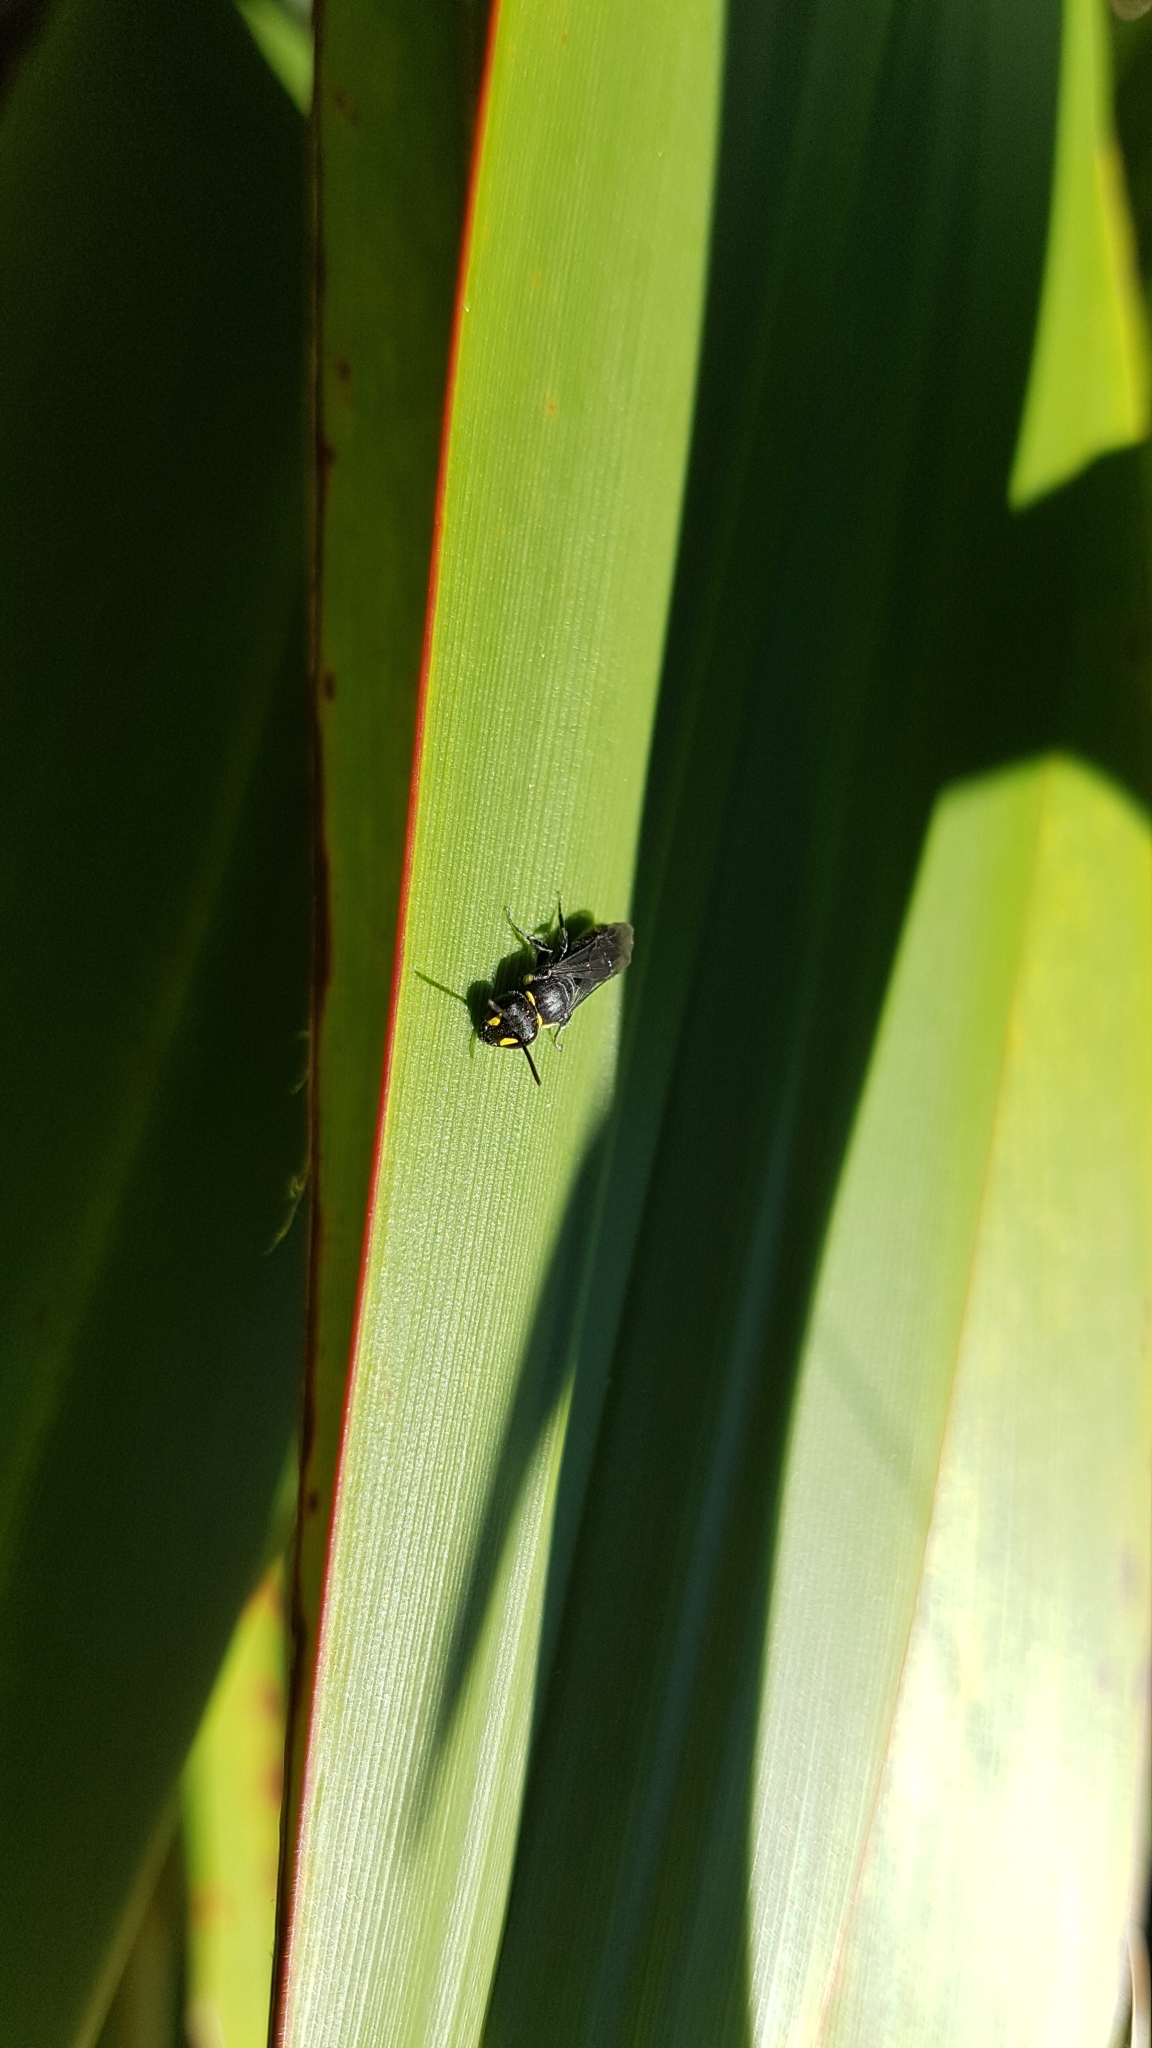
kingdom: Animalia
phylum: Arthropoda
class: Insecta
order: Hymenoptera
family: Colletidae
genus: Hylaeus
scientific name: Hylaeus relegatus
